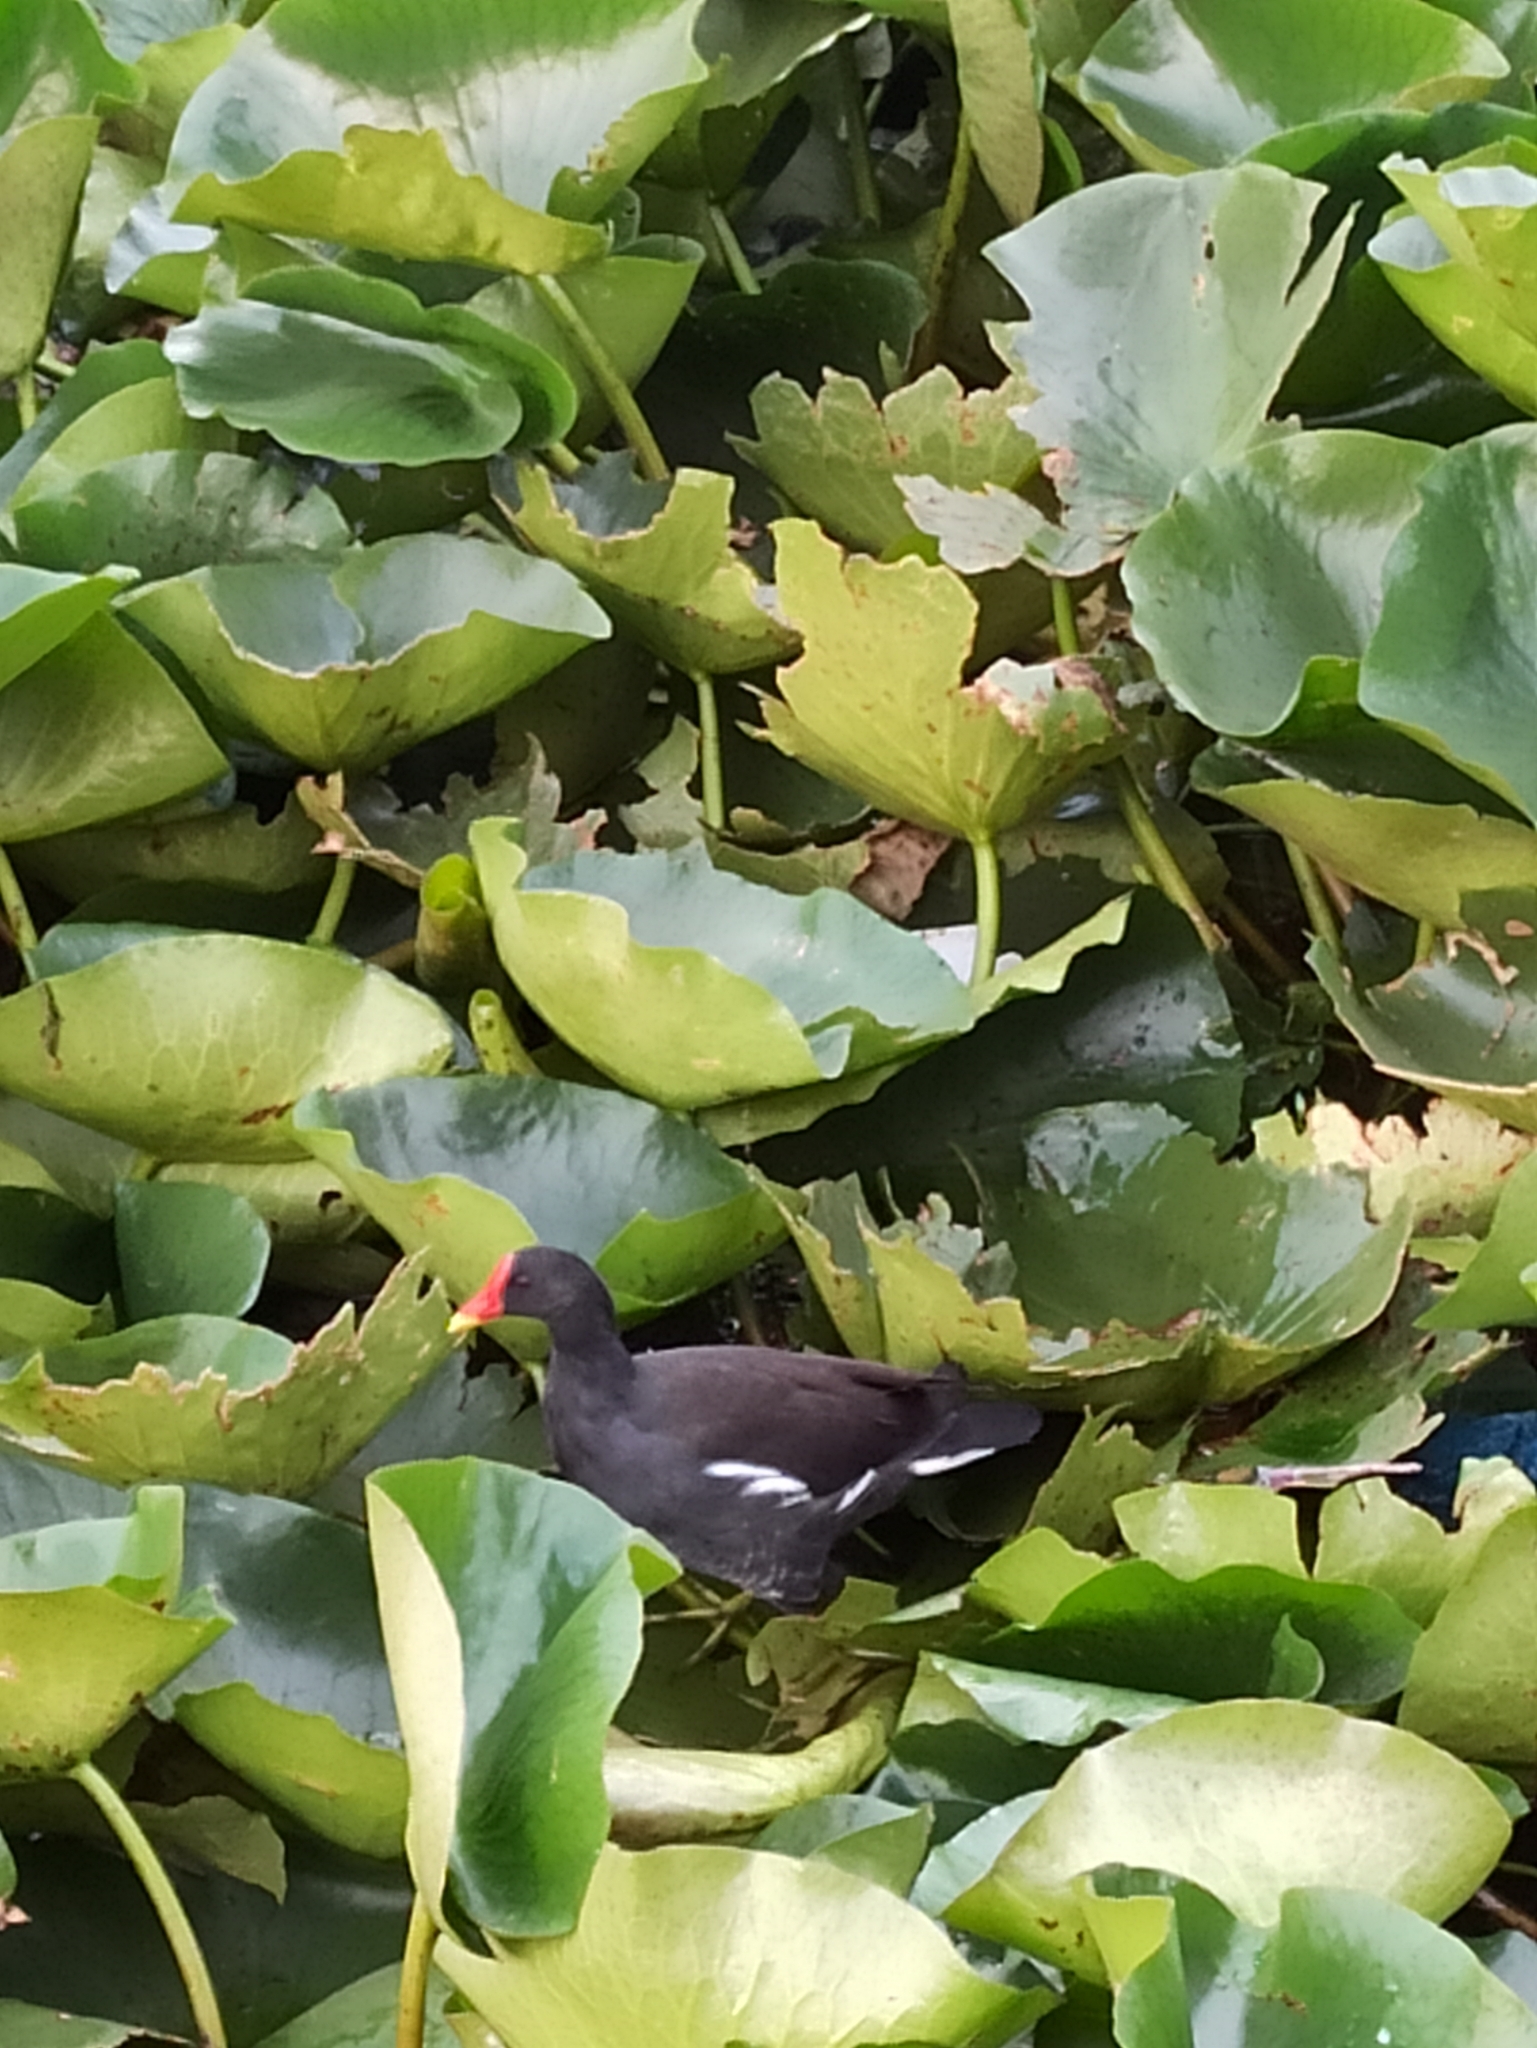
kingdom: Animalia
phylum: Chordata
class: Aves
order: Gruiformes
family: Rallidae
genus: Gallinula
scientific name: Gallinula chloropus
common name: Common moorhen
